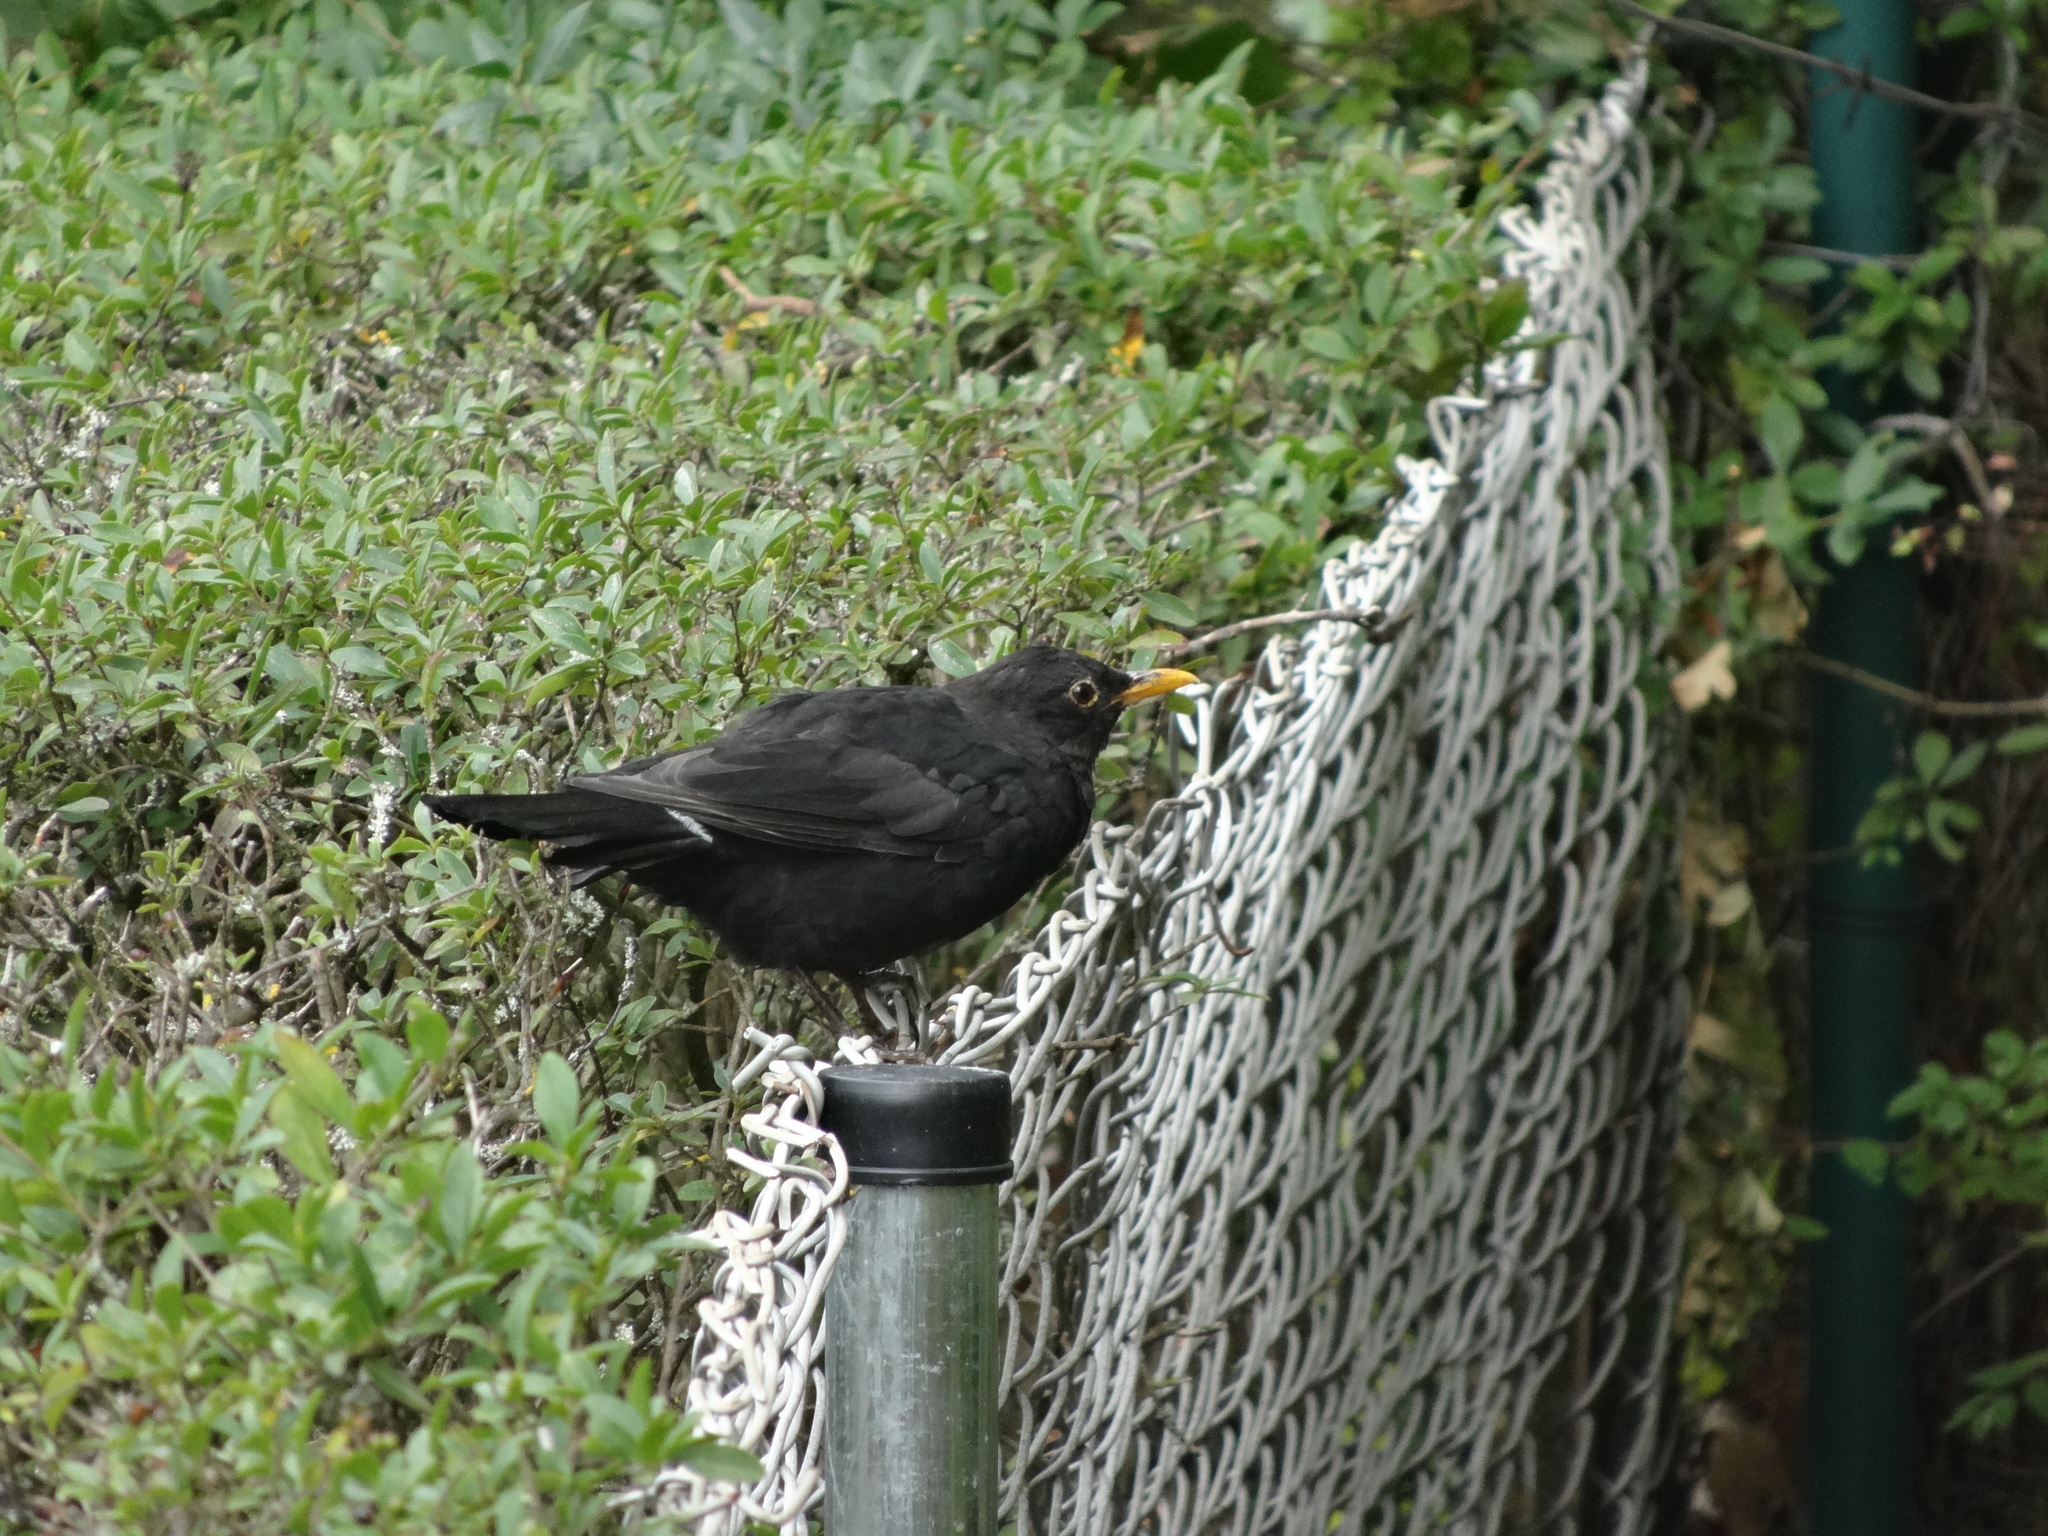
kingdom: Animalia
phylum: Chordata
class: Aves
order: Passeriformes
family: Turdidae
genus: Turdus
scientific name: Turdus merula
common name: Common blackbird
